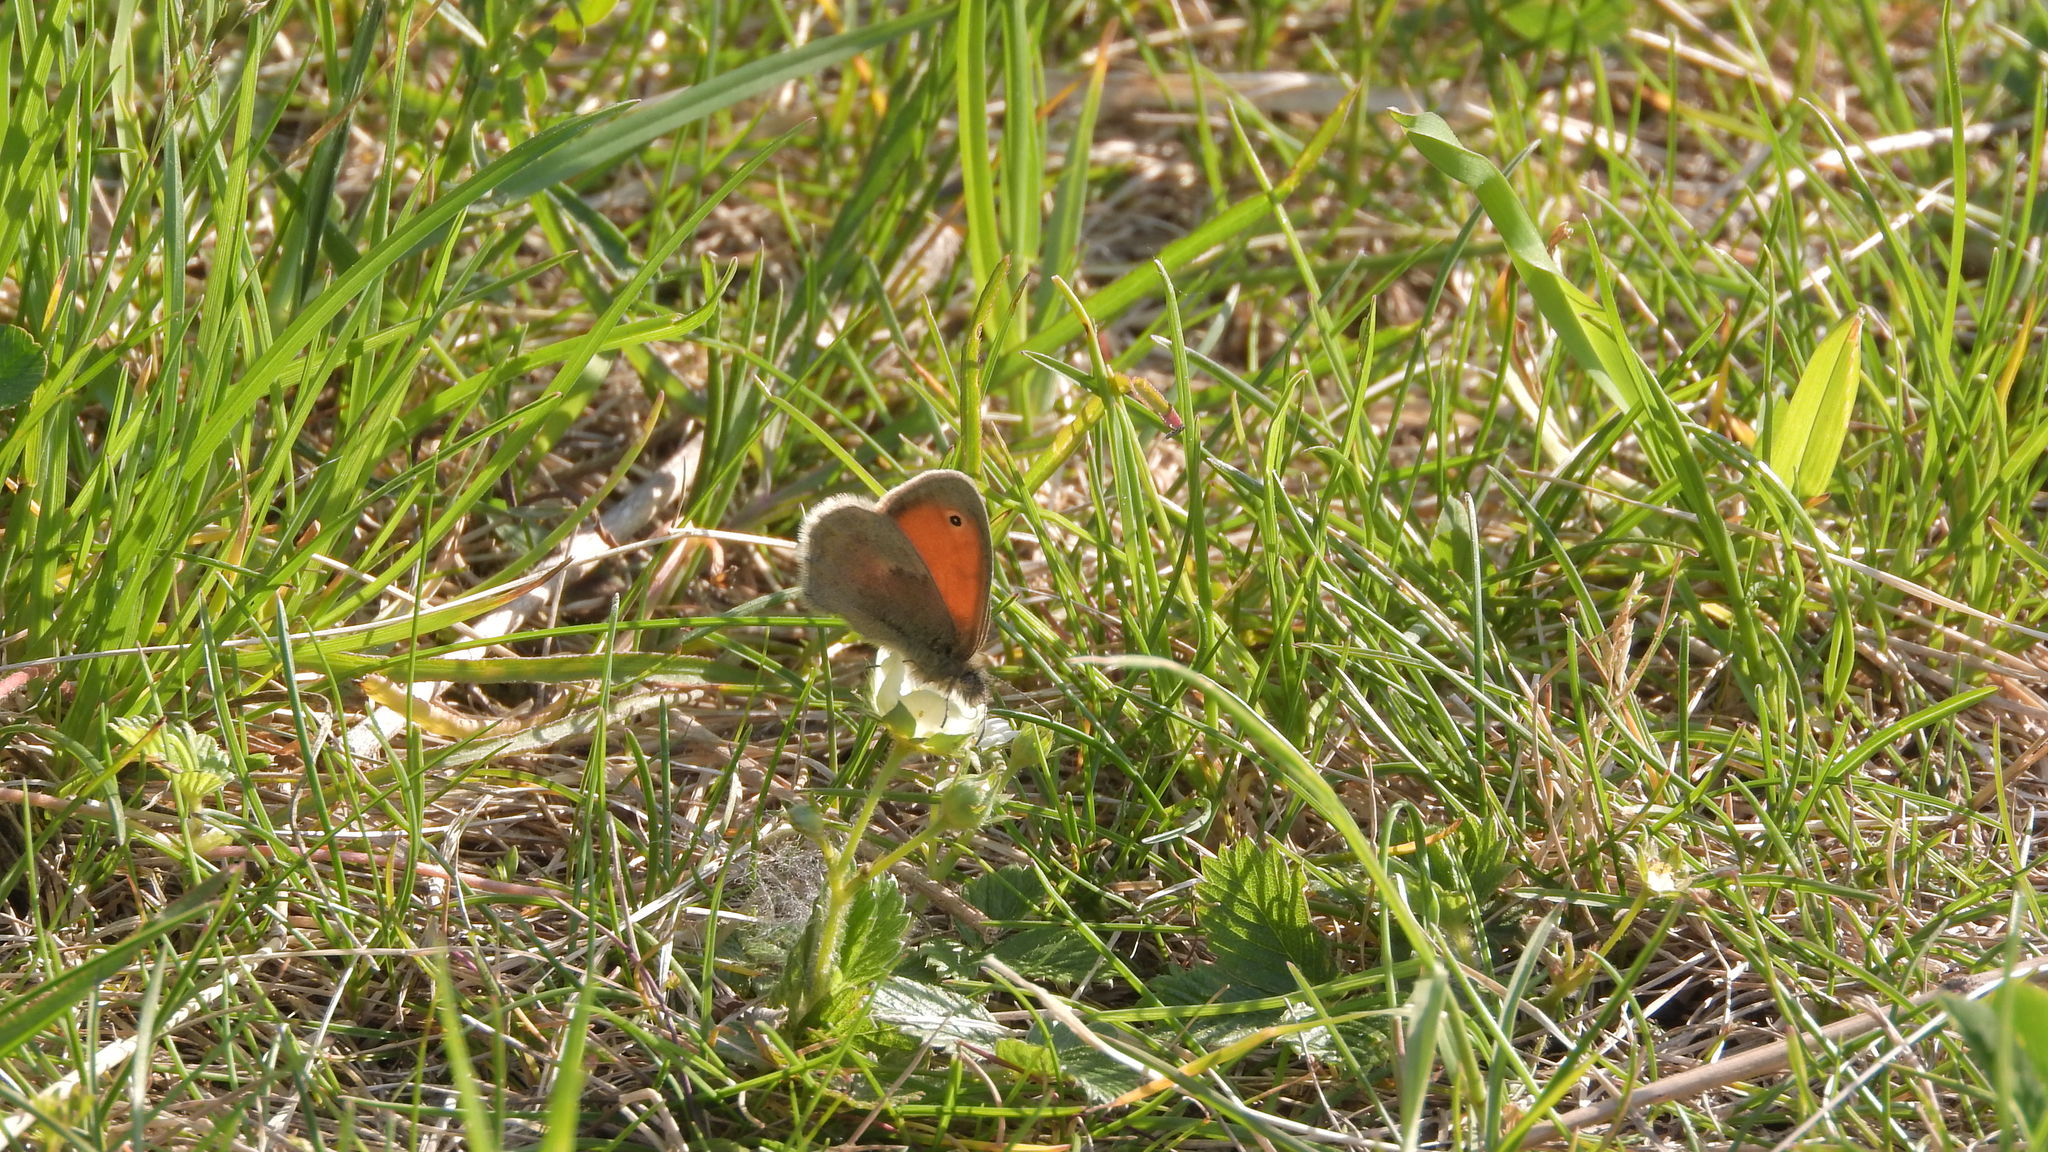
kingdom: Animalia
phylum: Arthropoda
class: Insecta
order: Lepidoptera
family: Nymphalidae
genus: Coenonympha
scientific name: Coenonympha pamphilus
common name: Small heath
